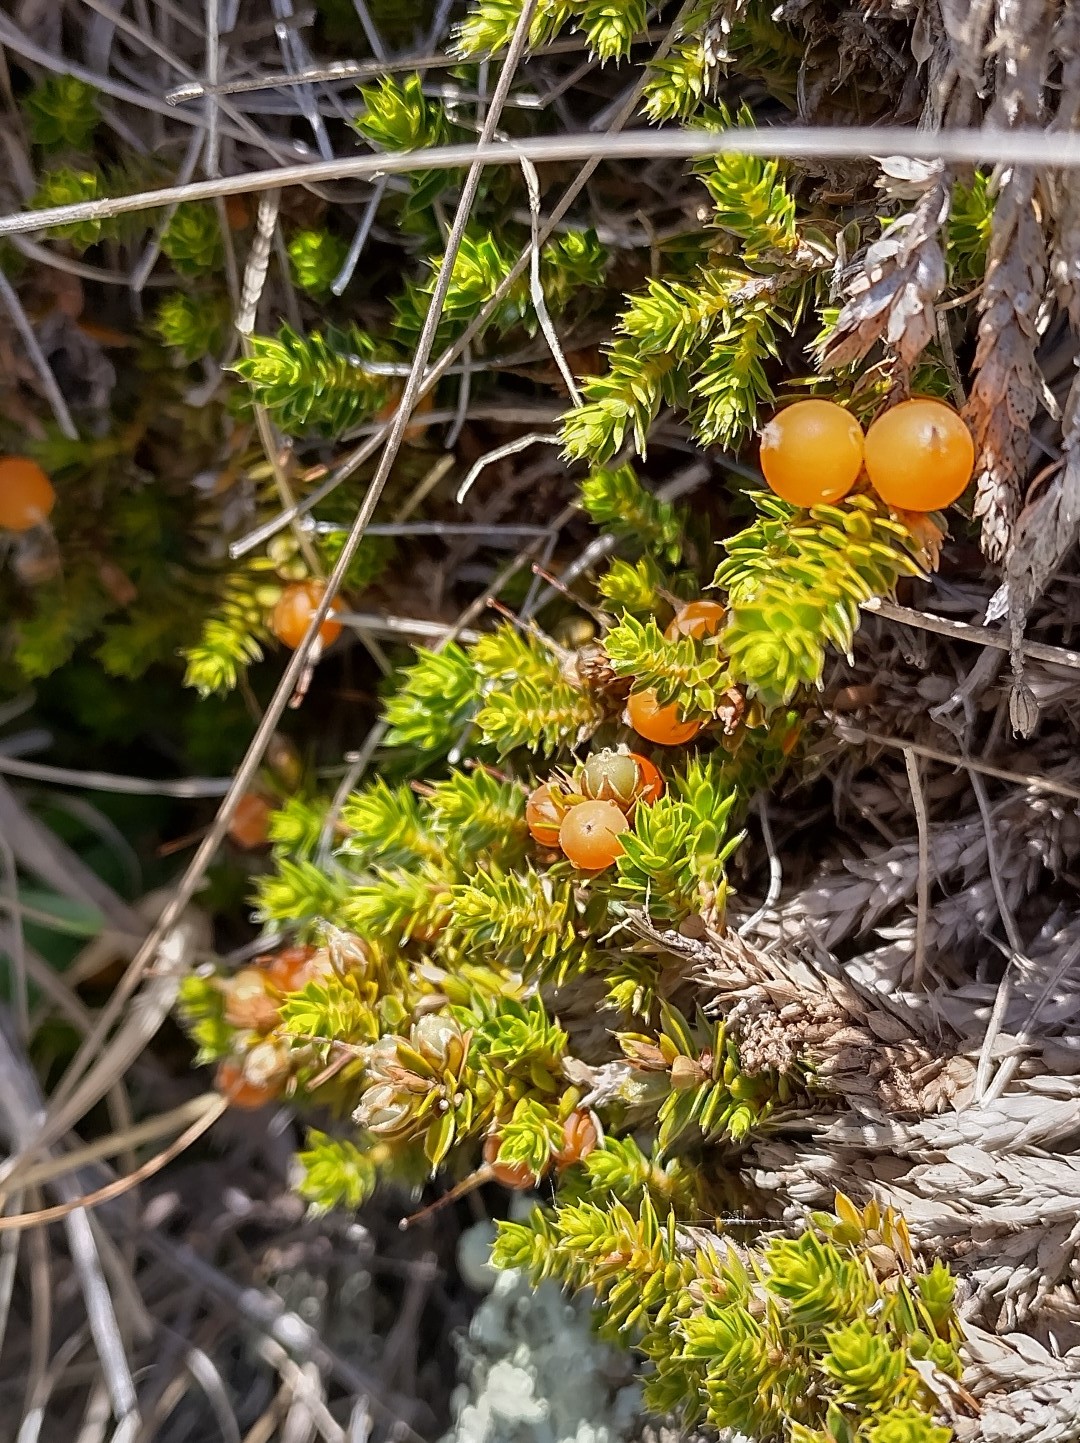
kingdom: Plantae
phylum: Tracheophyta
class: Magnoliopsida
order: Ericales
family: Ericaceae
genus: Styphelia
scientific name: Styphelia nesophila
